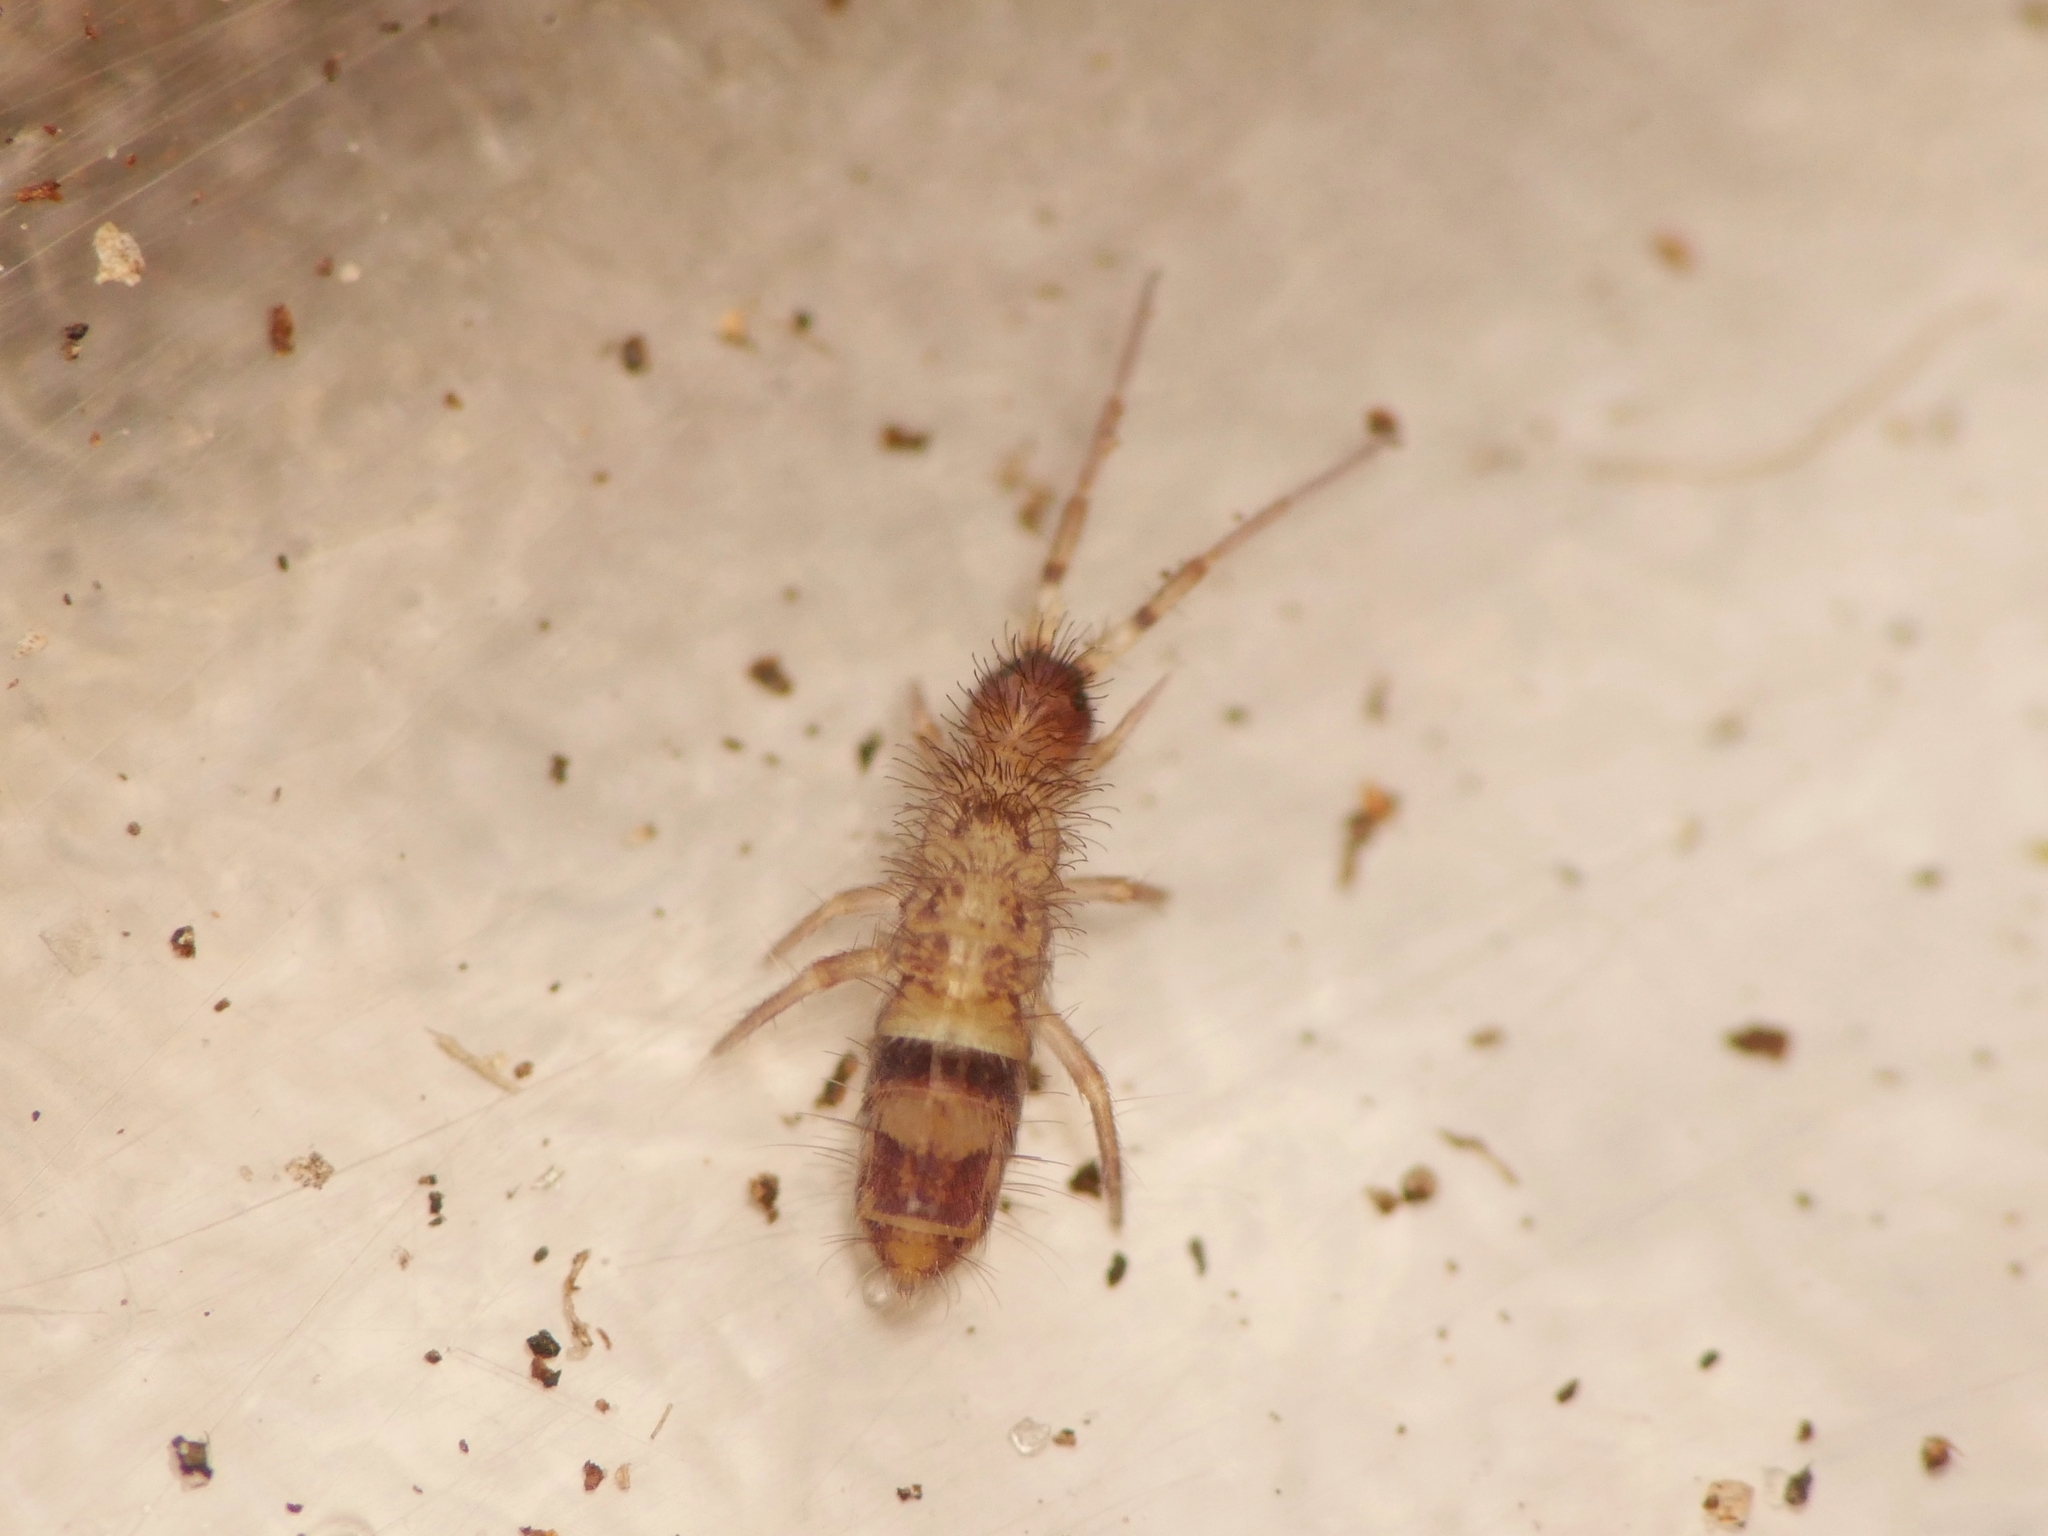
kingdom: Animalia
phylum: Arthropoda
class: Collembola
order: Entomobryomorpha
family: Orchesellidae
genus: Orchesella
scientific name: Orchesella cincta
